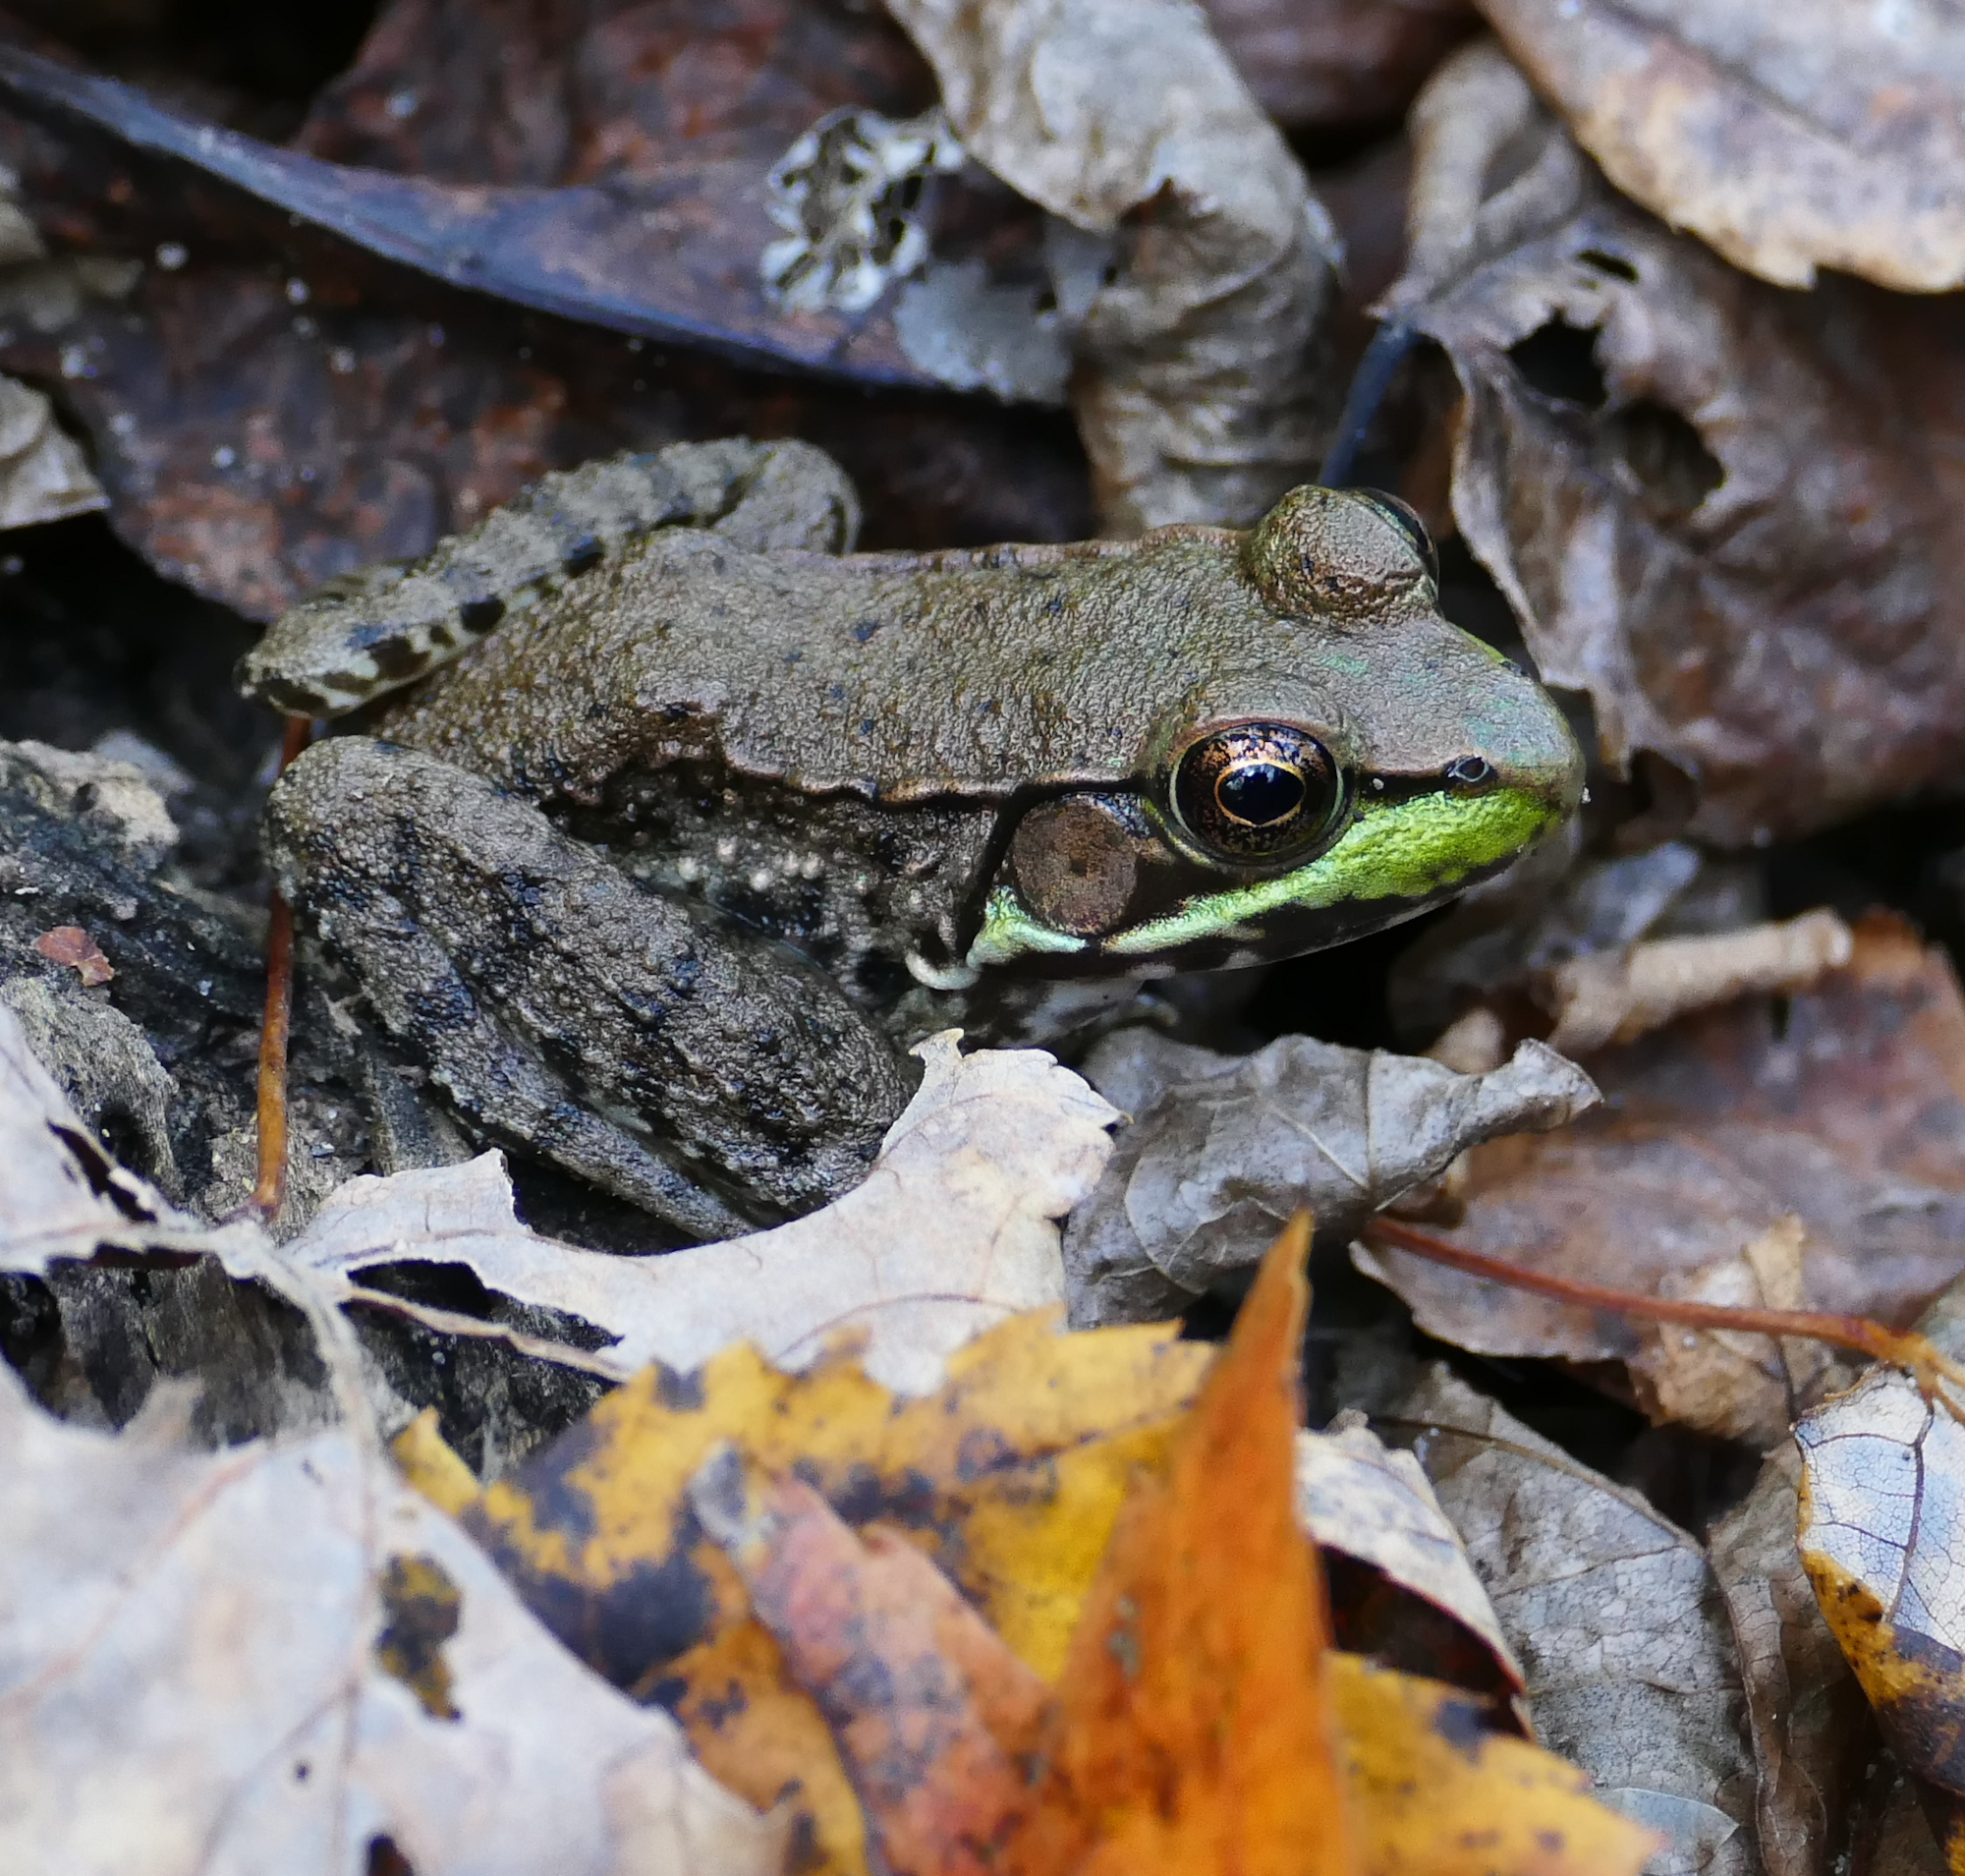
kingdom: Animalia
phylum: Chordata
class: Amphibia
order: Anura
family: Ranidae
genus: Lithobates
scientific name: Lithobates clamitans
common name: Green frog
